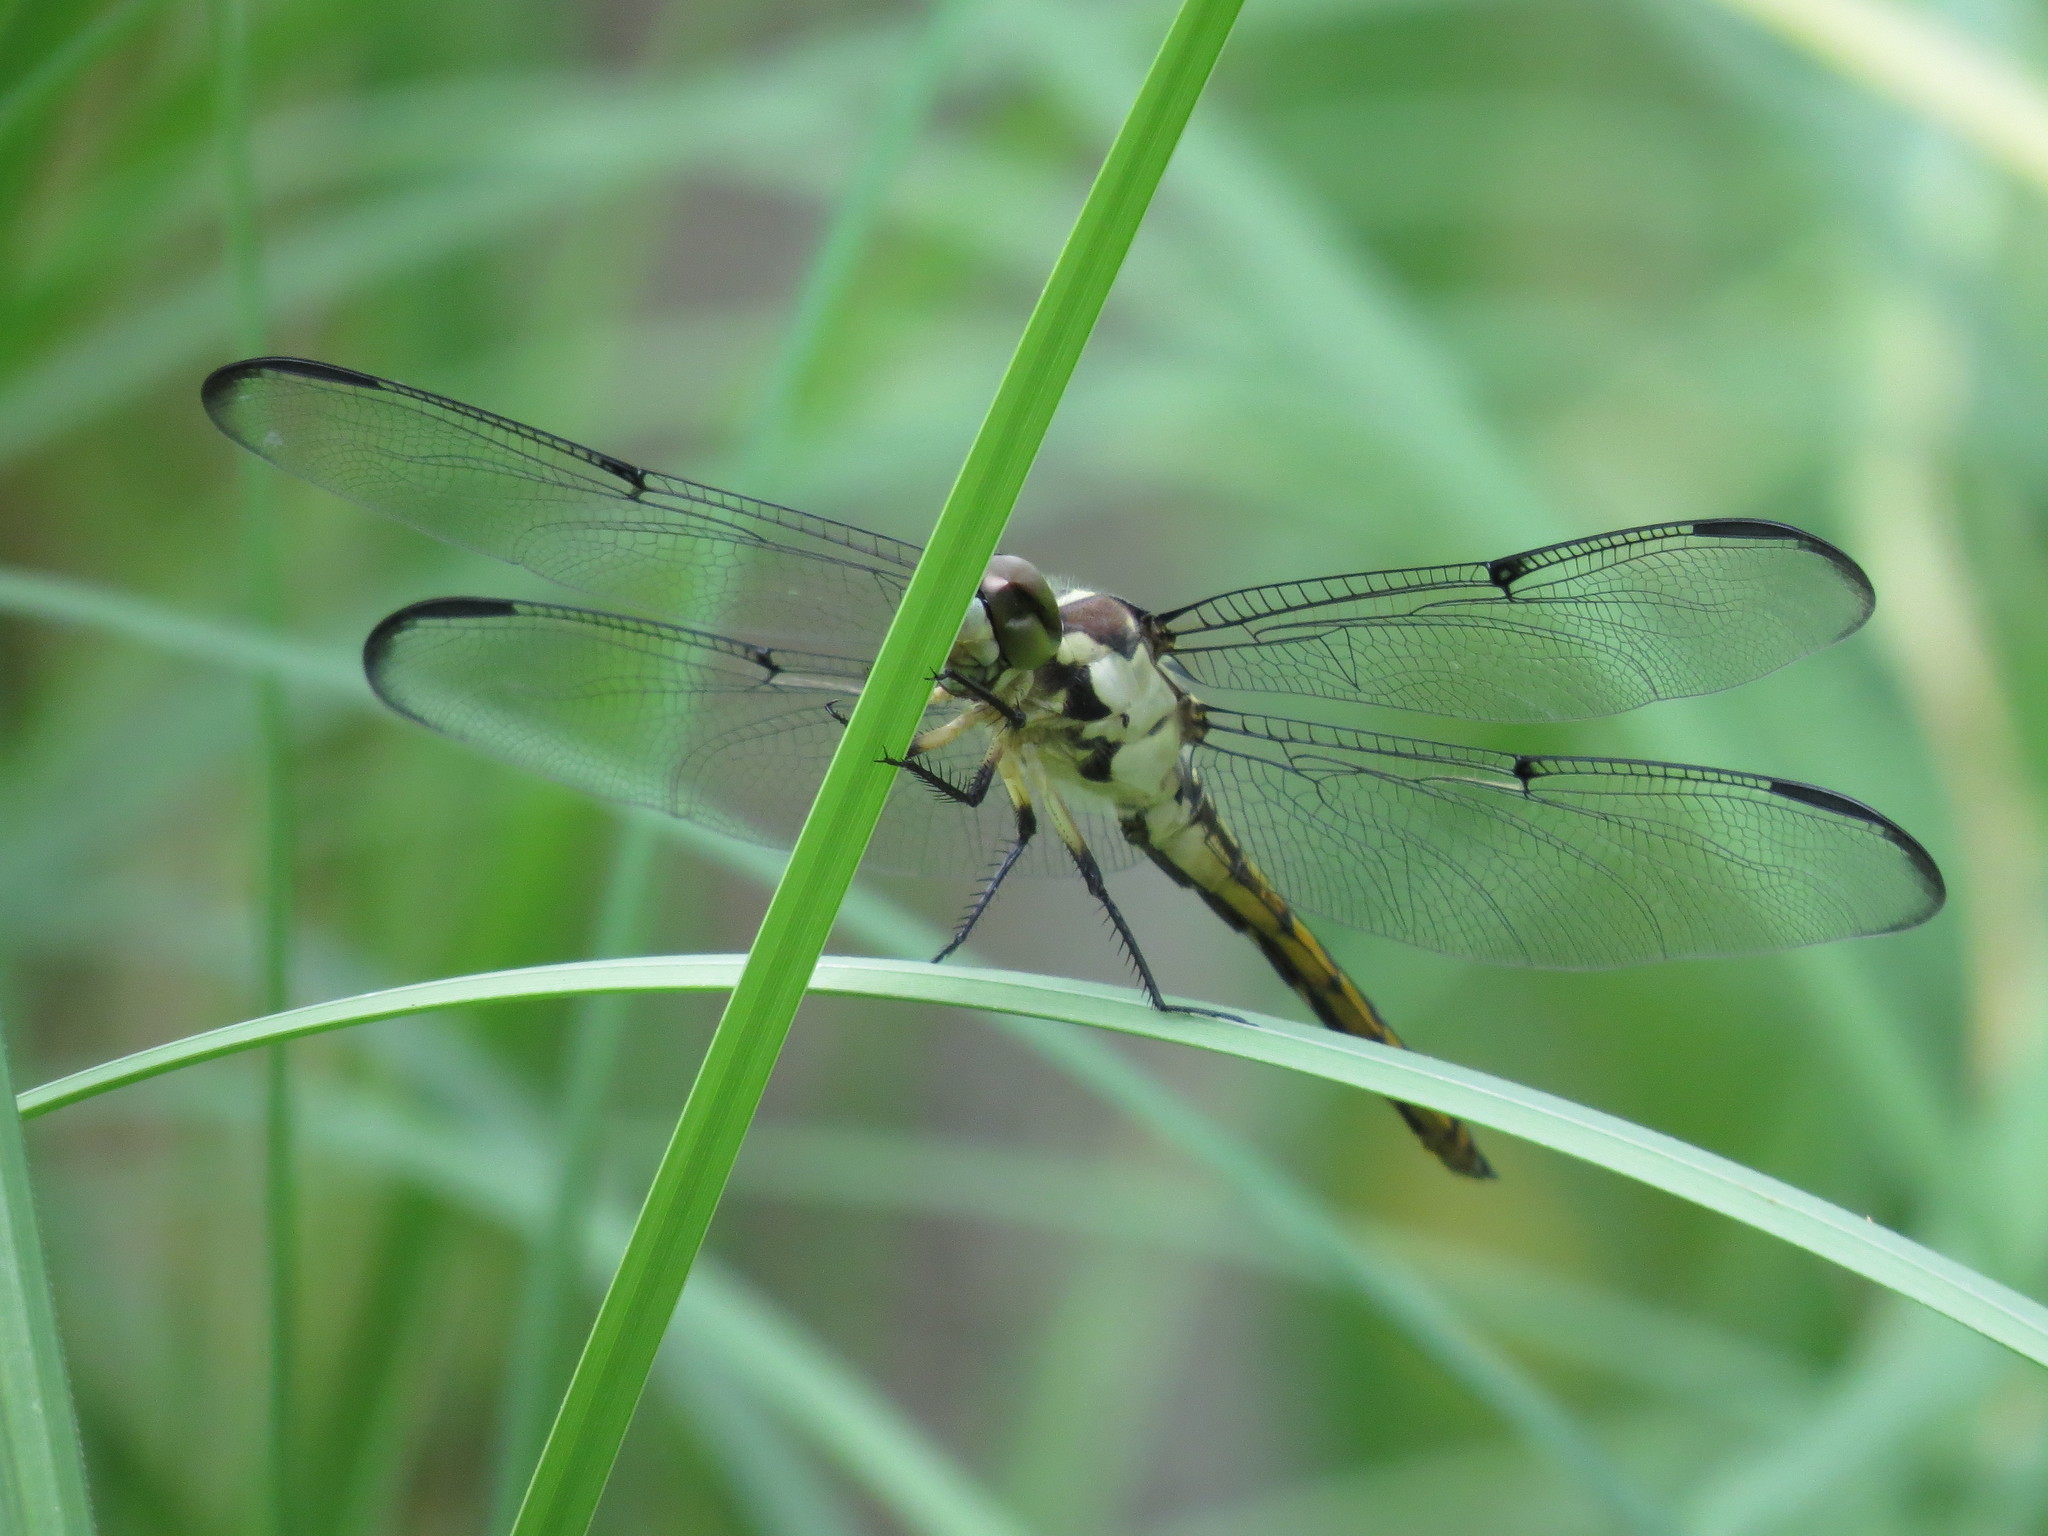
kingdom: Animalia
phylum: Arthropoda
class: Insecta
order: Odonata
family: Libellulidae
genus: Libellula
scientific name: Libellula vibrans
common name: Great blue skimmer
